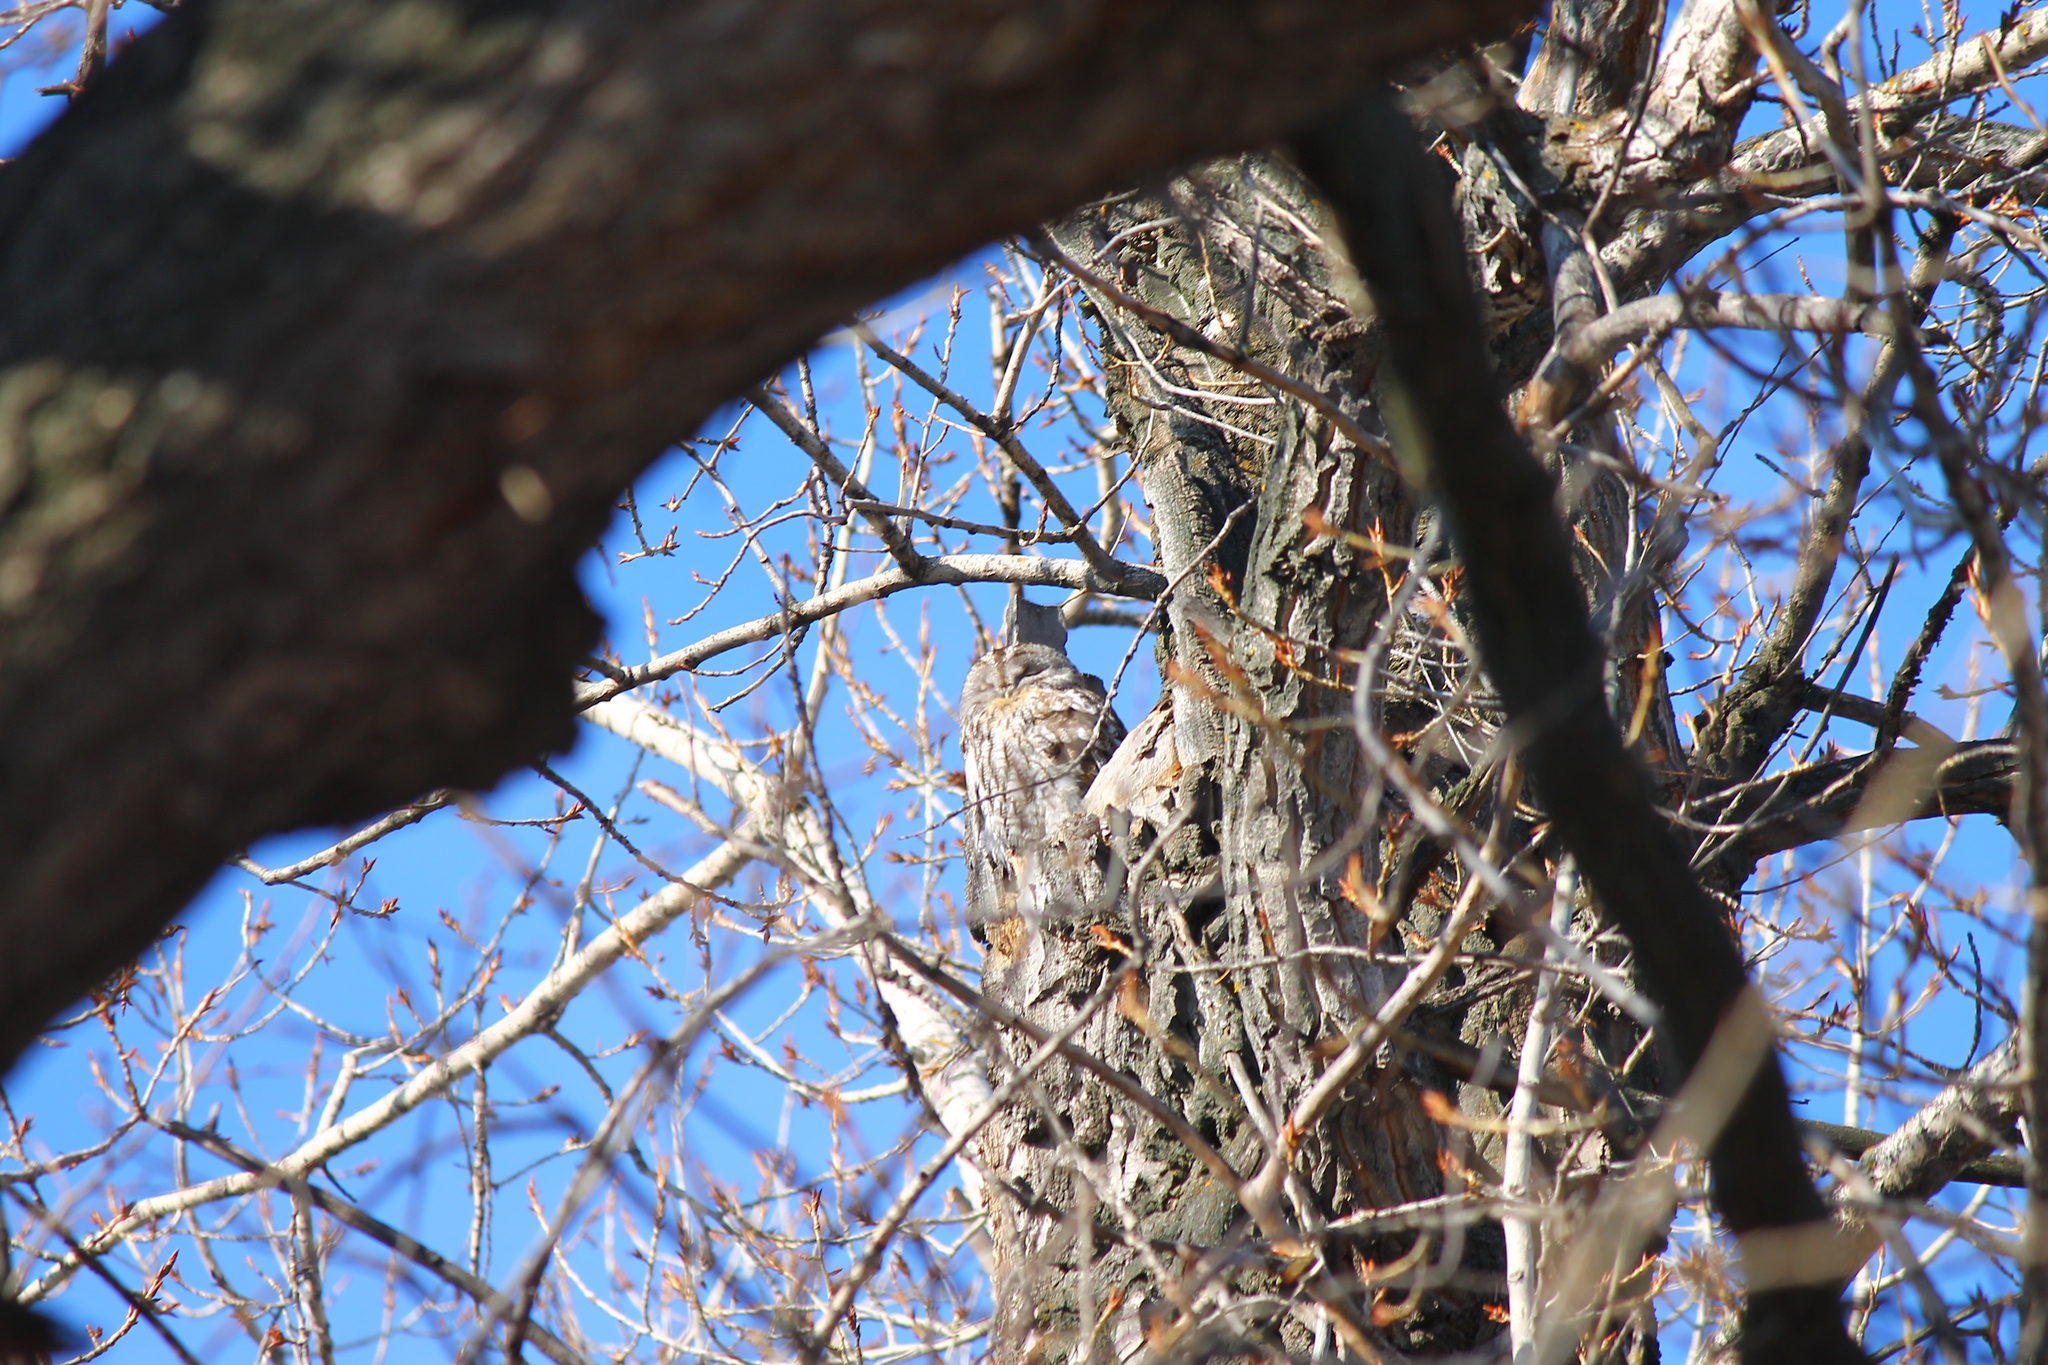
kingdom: Animalia
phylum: Chordata
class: Aves
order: Strigiformes
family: Strigidae
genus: Strix
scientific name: Strix aluco
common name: Tawny owl
